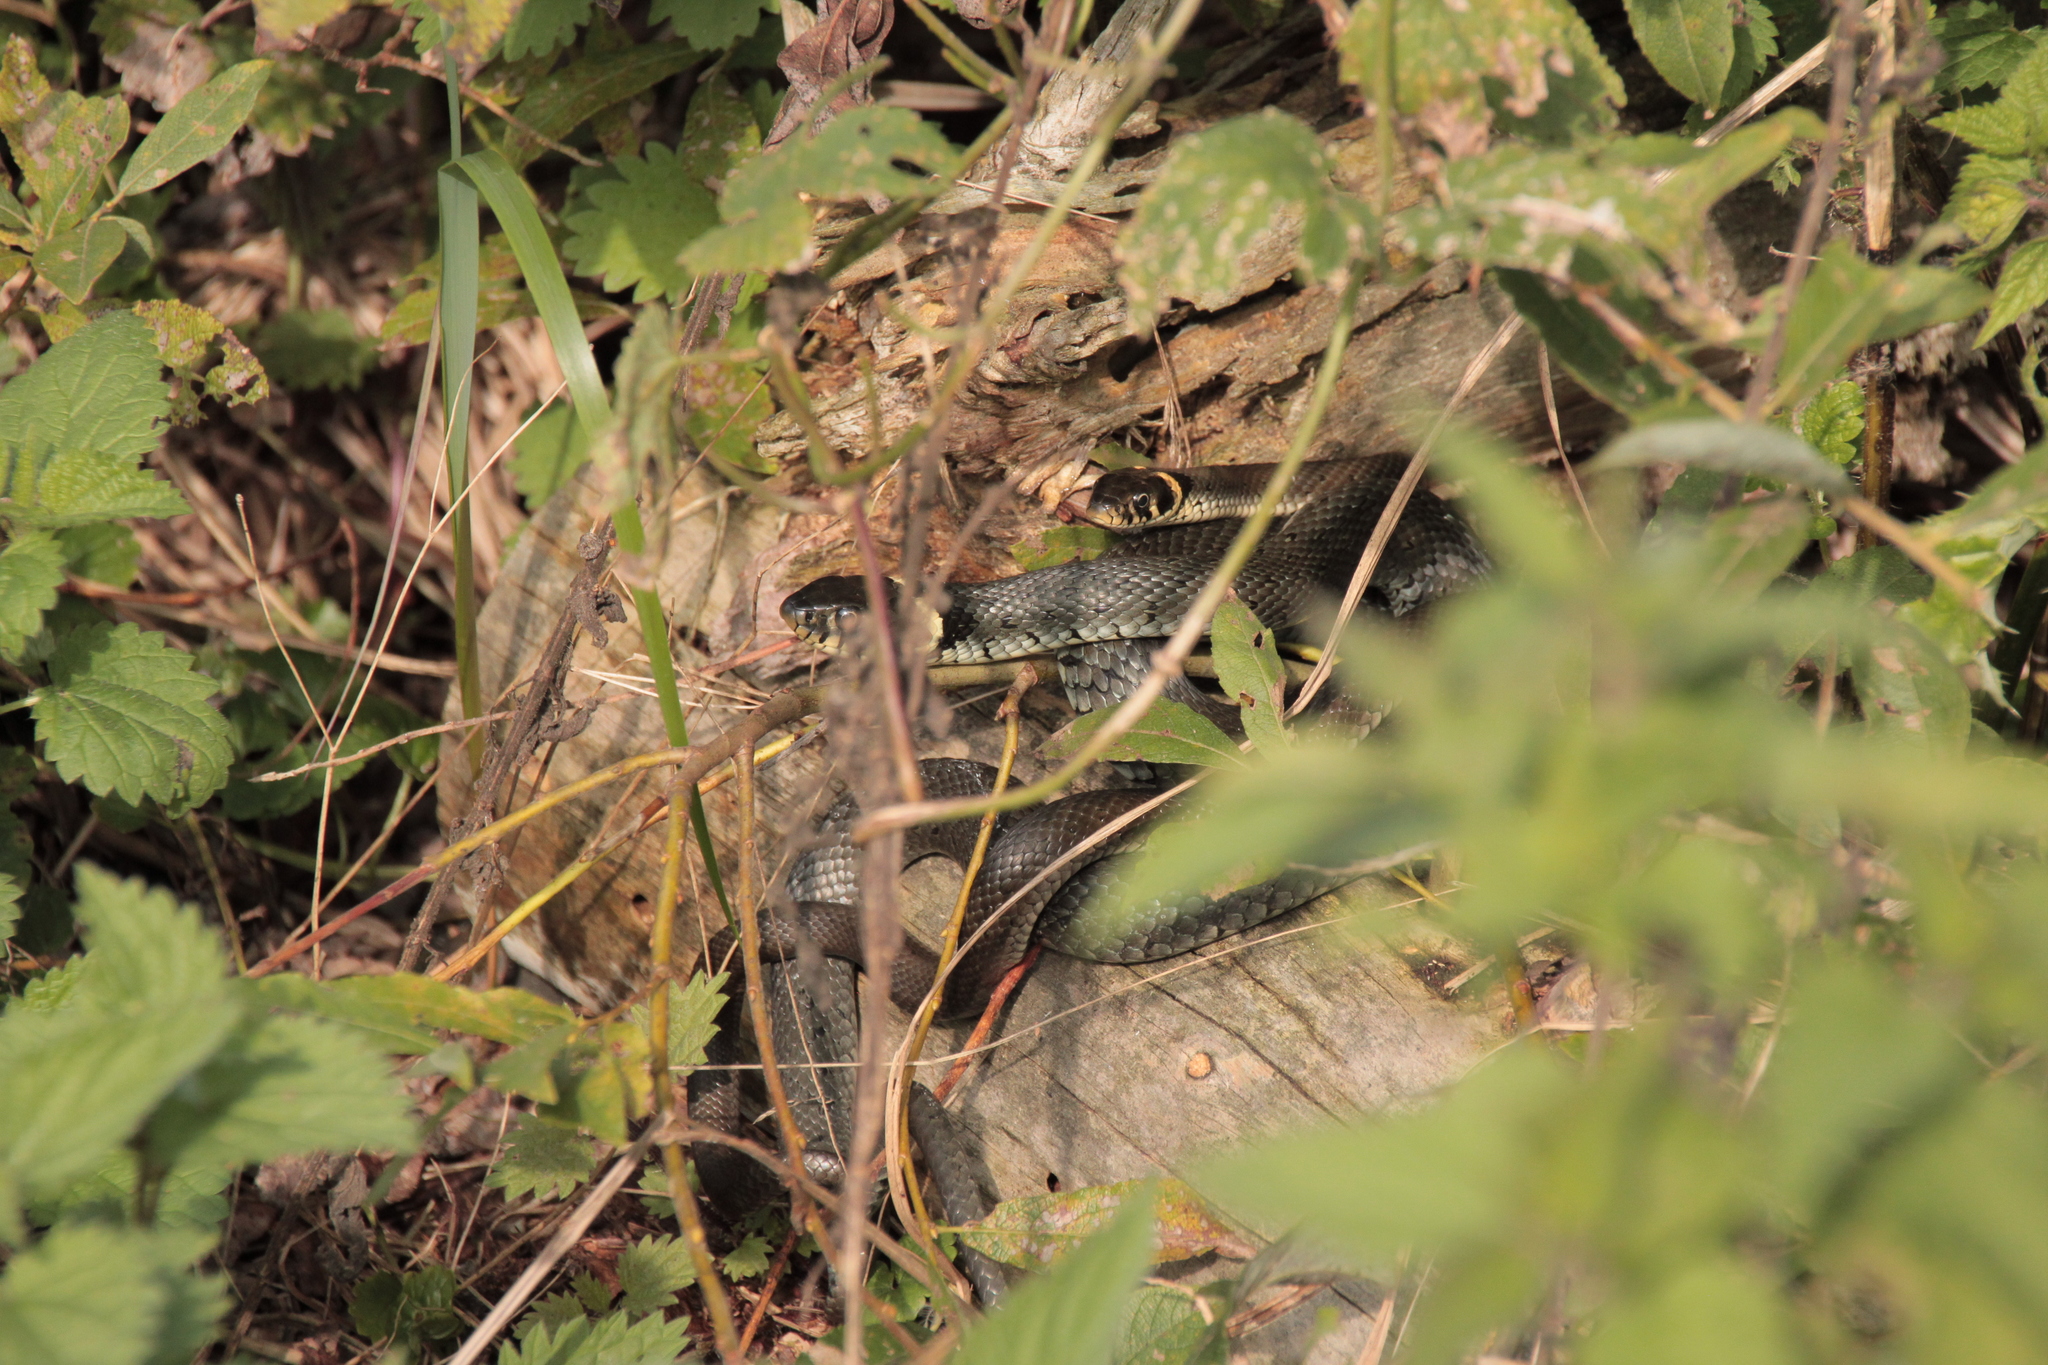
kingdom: Animalia
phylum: Chordata
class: Squamata
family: Colubridae
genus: Natrix
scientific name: Natrix natrix
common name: Grass snake
